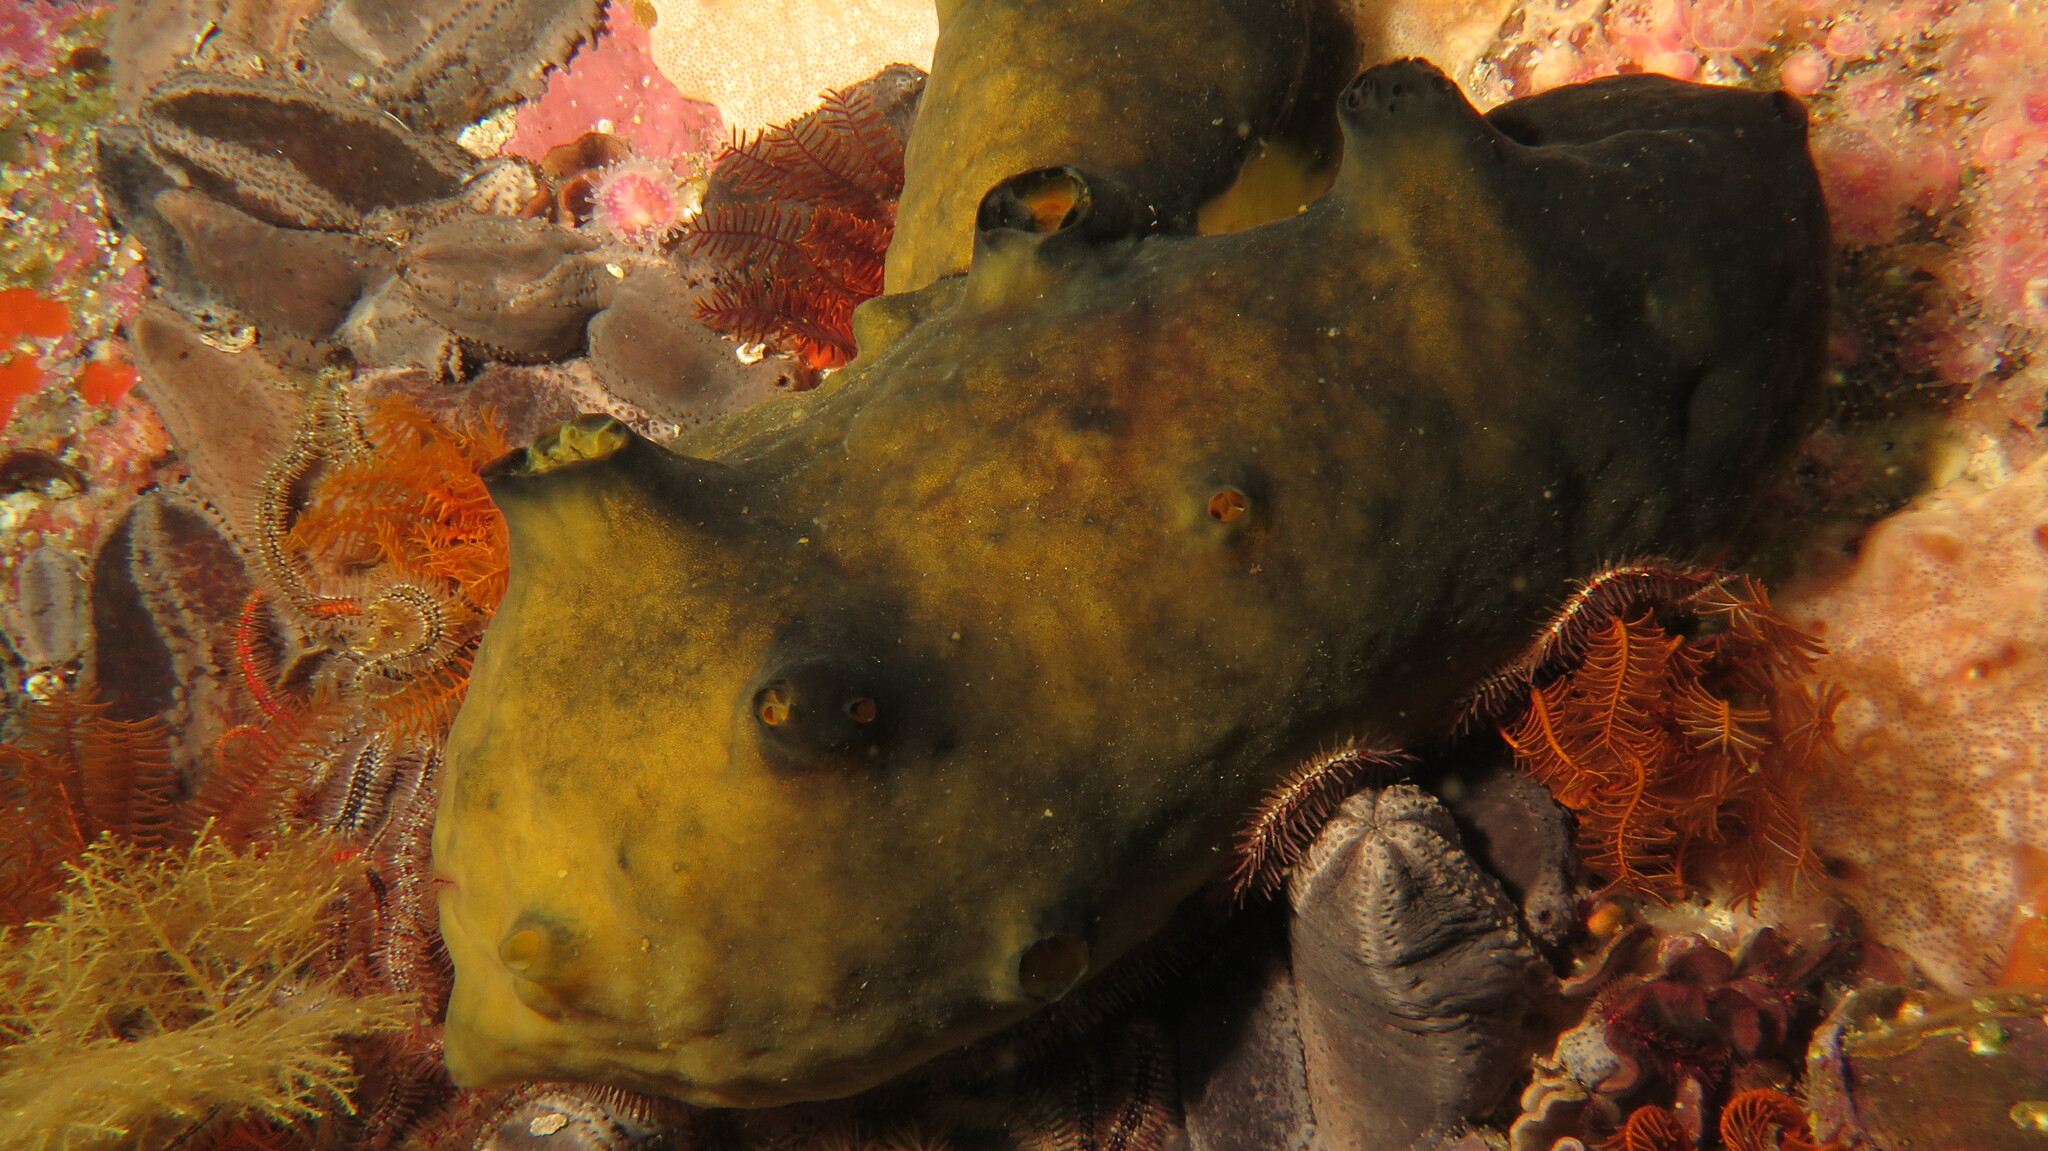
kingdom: Animalia
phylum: Porifera
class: Demospongiae
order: Suberitida
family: Suberitidae
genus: Suberites
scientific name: Suberites ficus
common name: Fig sponge
